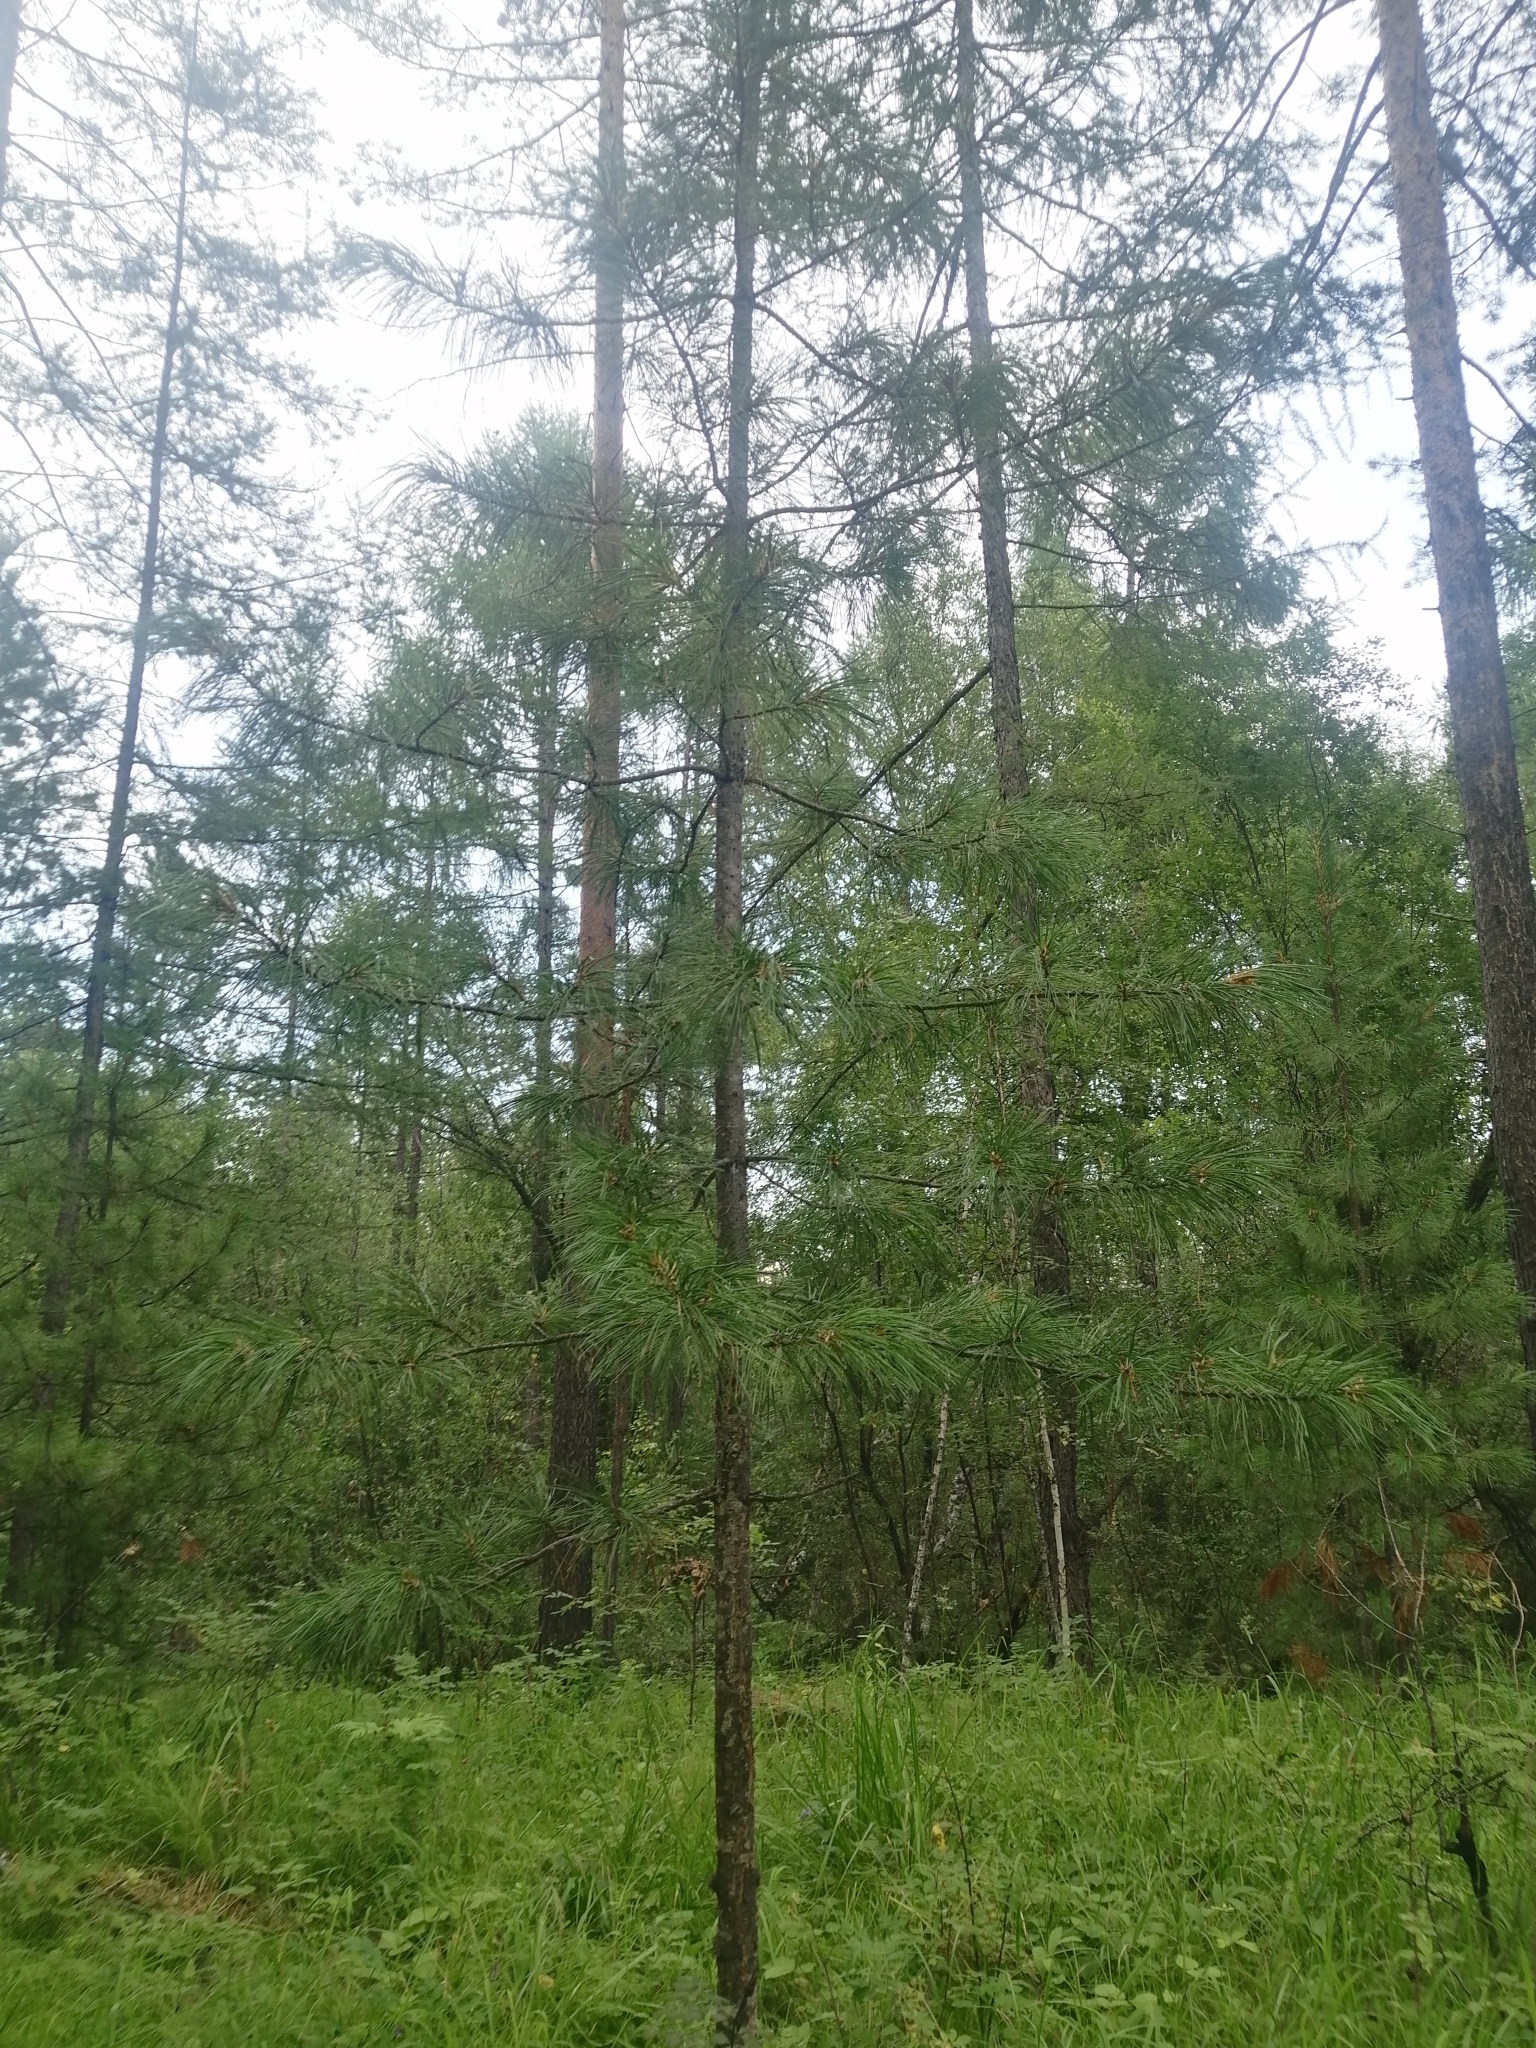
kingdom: Plantae
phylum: Tracheophyta
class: Pinopsida
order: Pinales
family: Pinaceae
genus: Pinus
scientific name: Pinus sibirica
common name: Siberian pine
